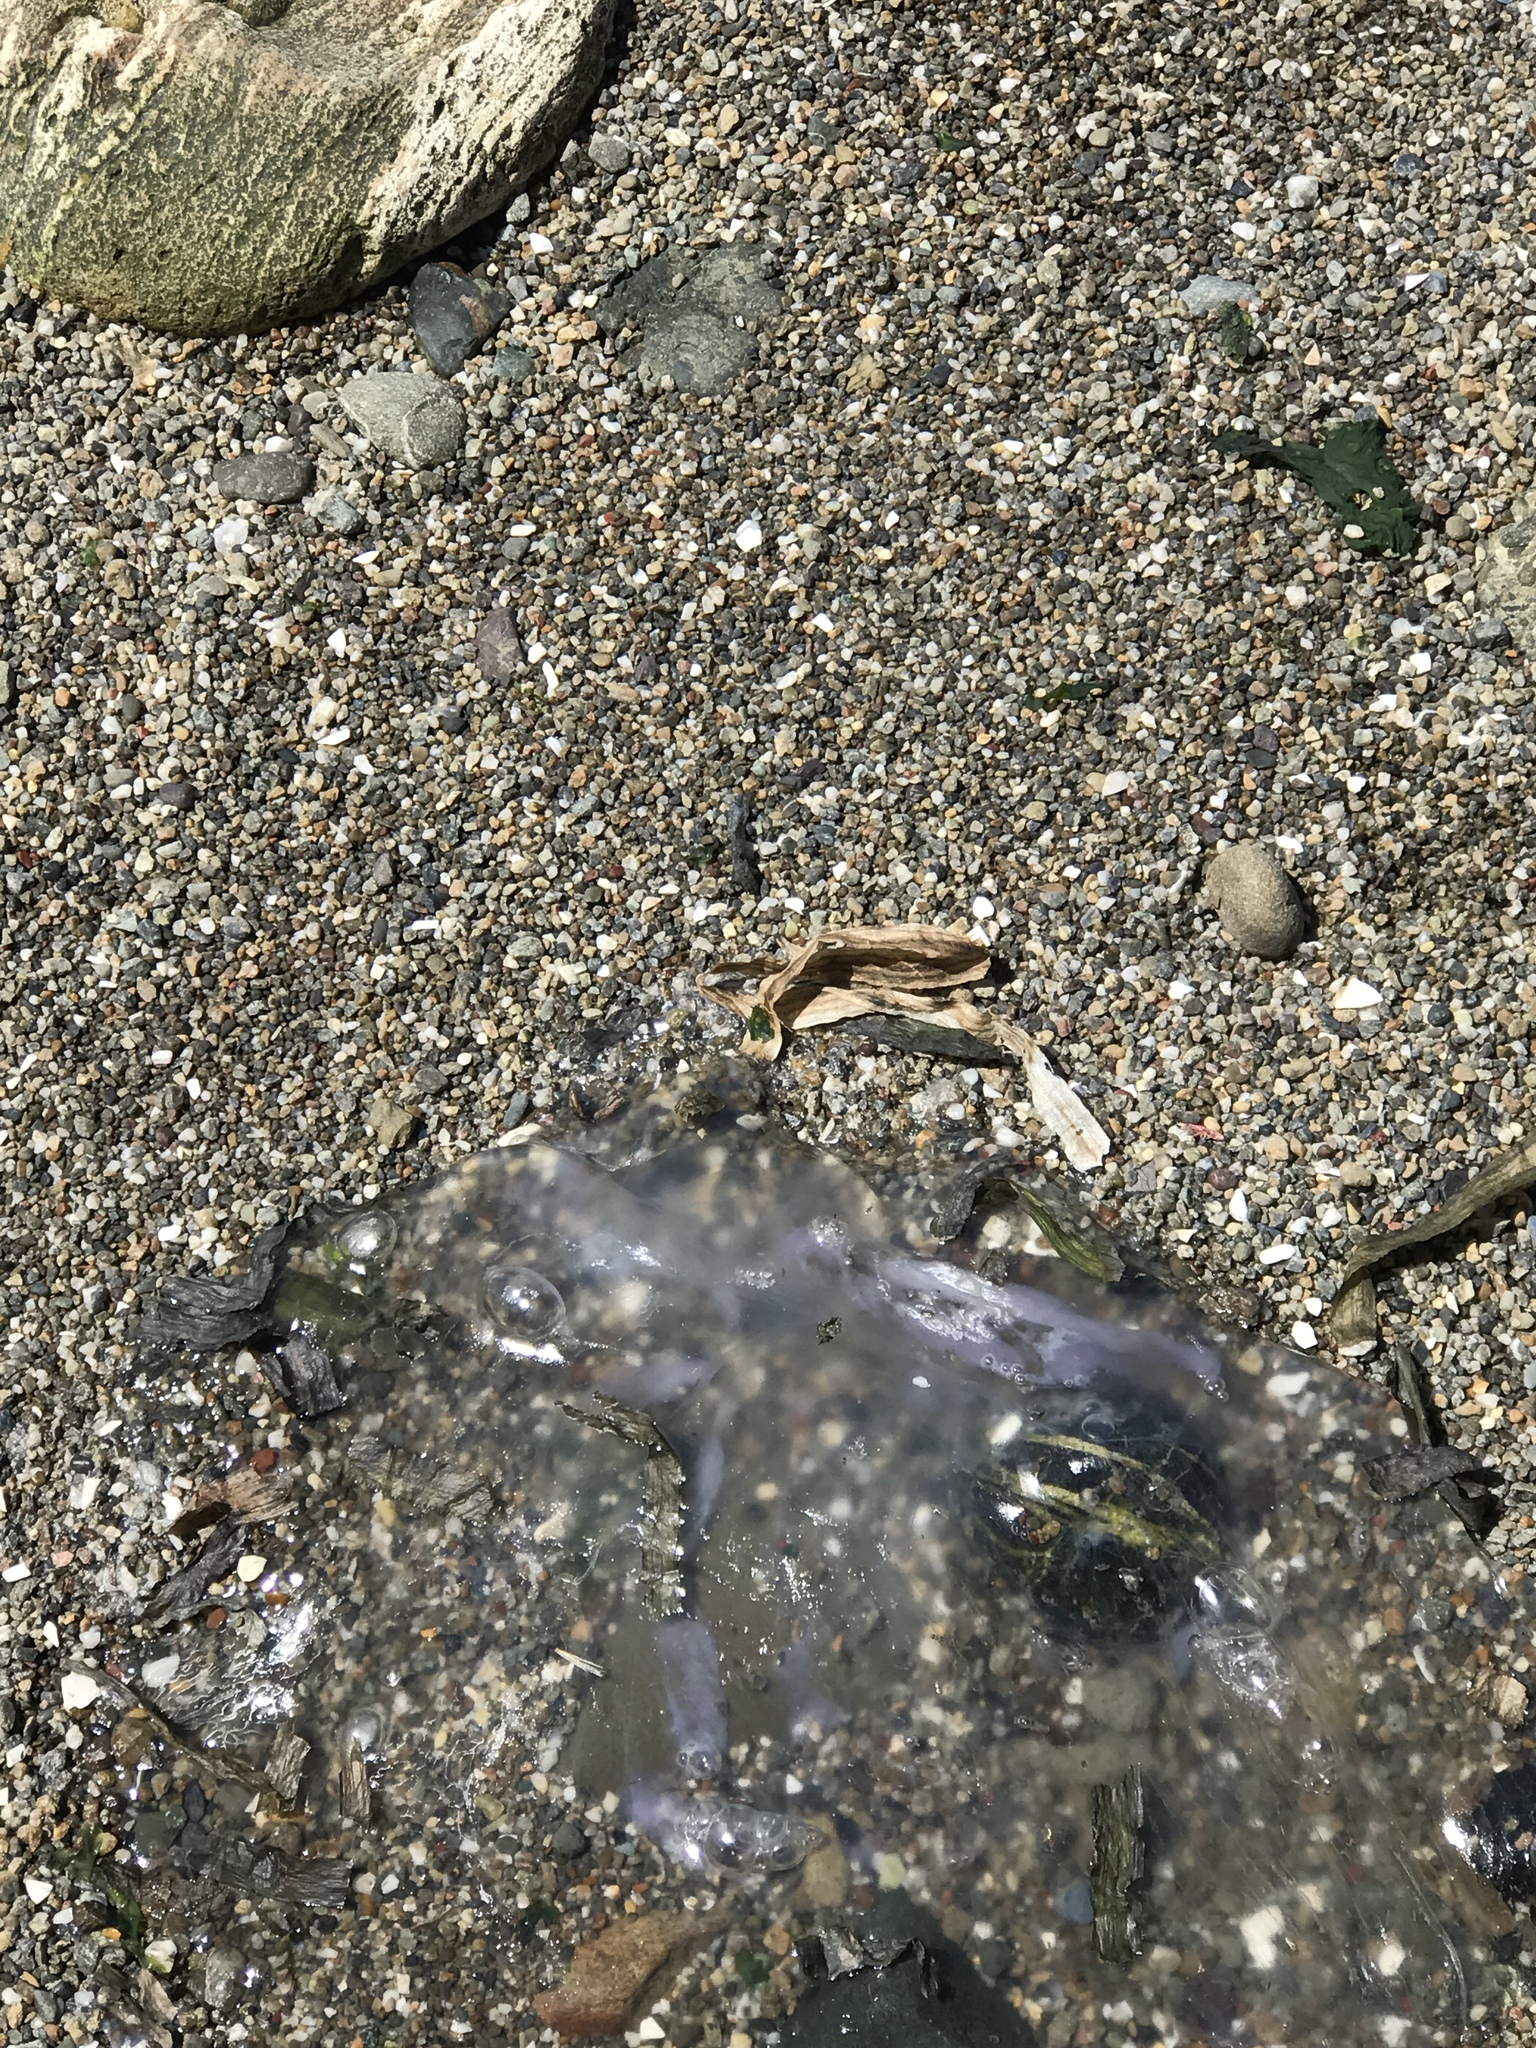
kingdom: Animalia
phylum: Cnidaria
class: Scyphozoa
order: Semaeostomeae
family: Ulmaridae
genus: Aurelia
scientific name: Aurelia labiata
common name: Pacific moon jelly
